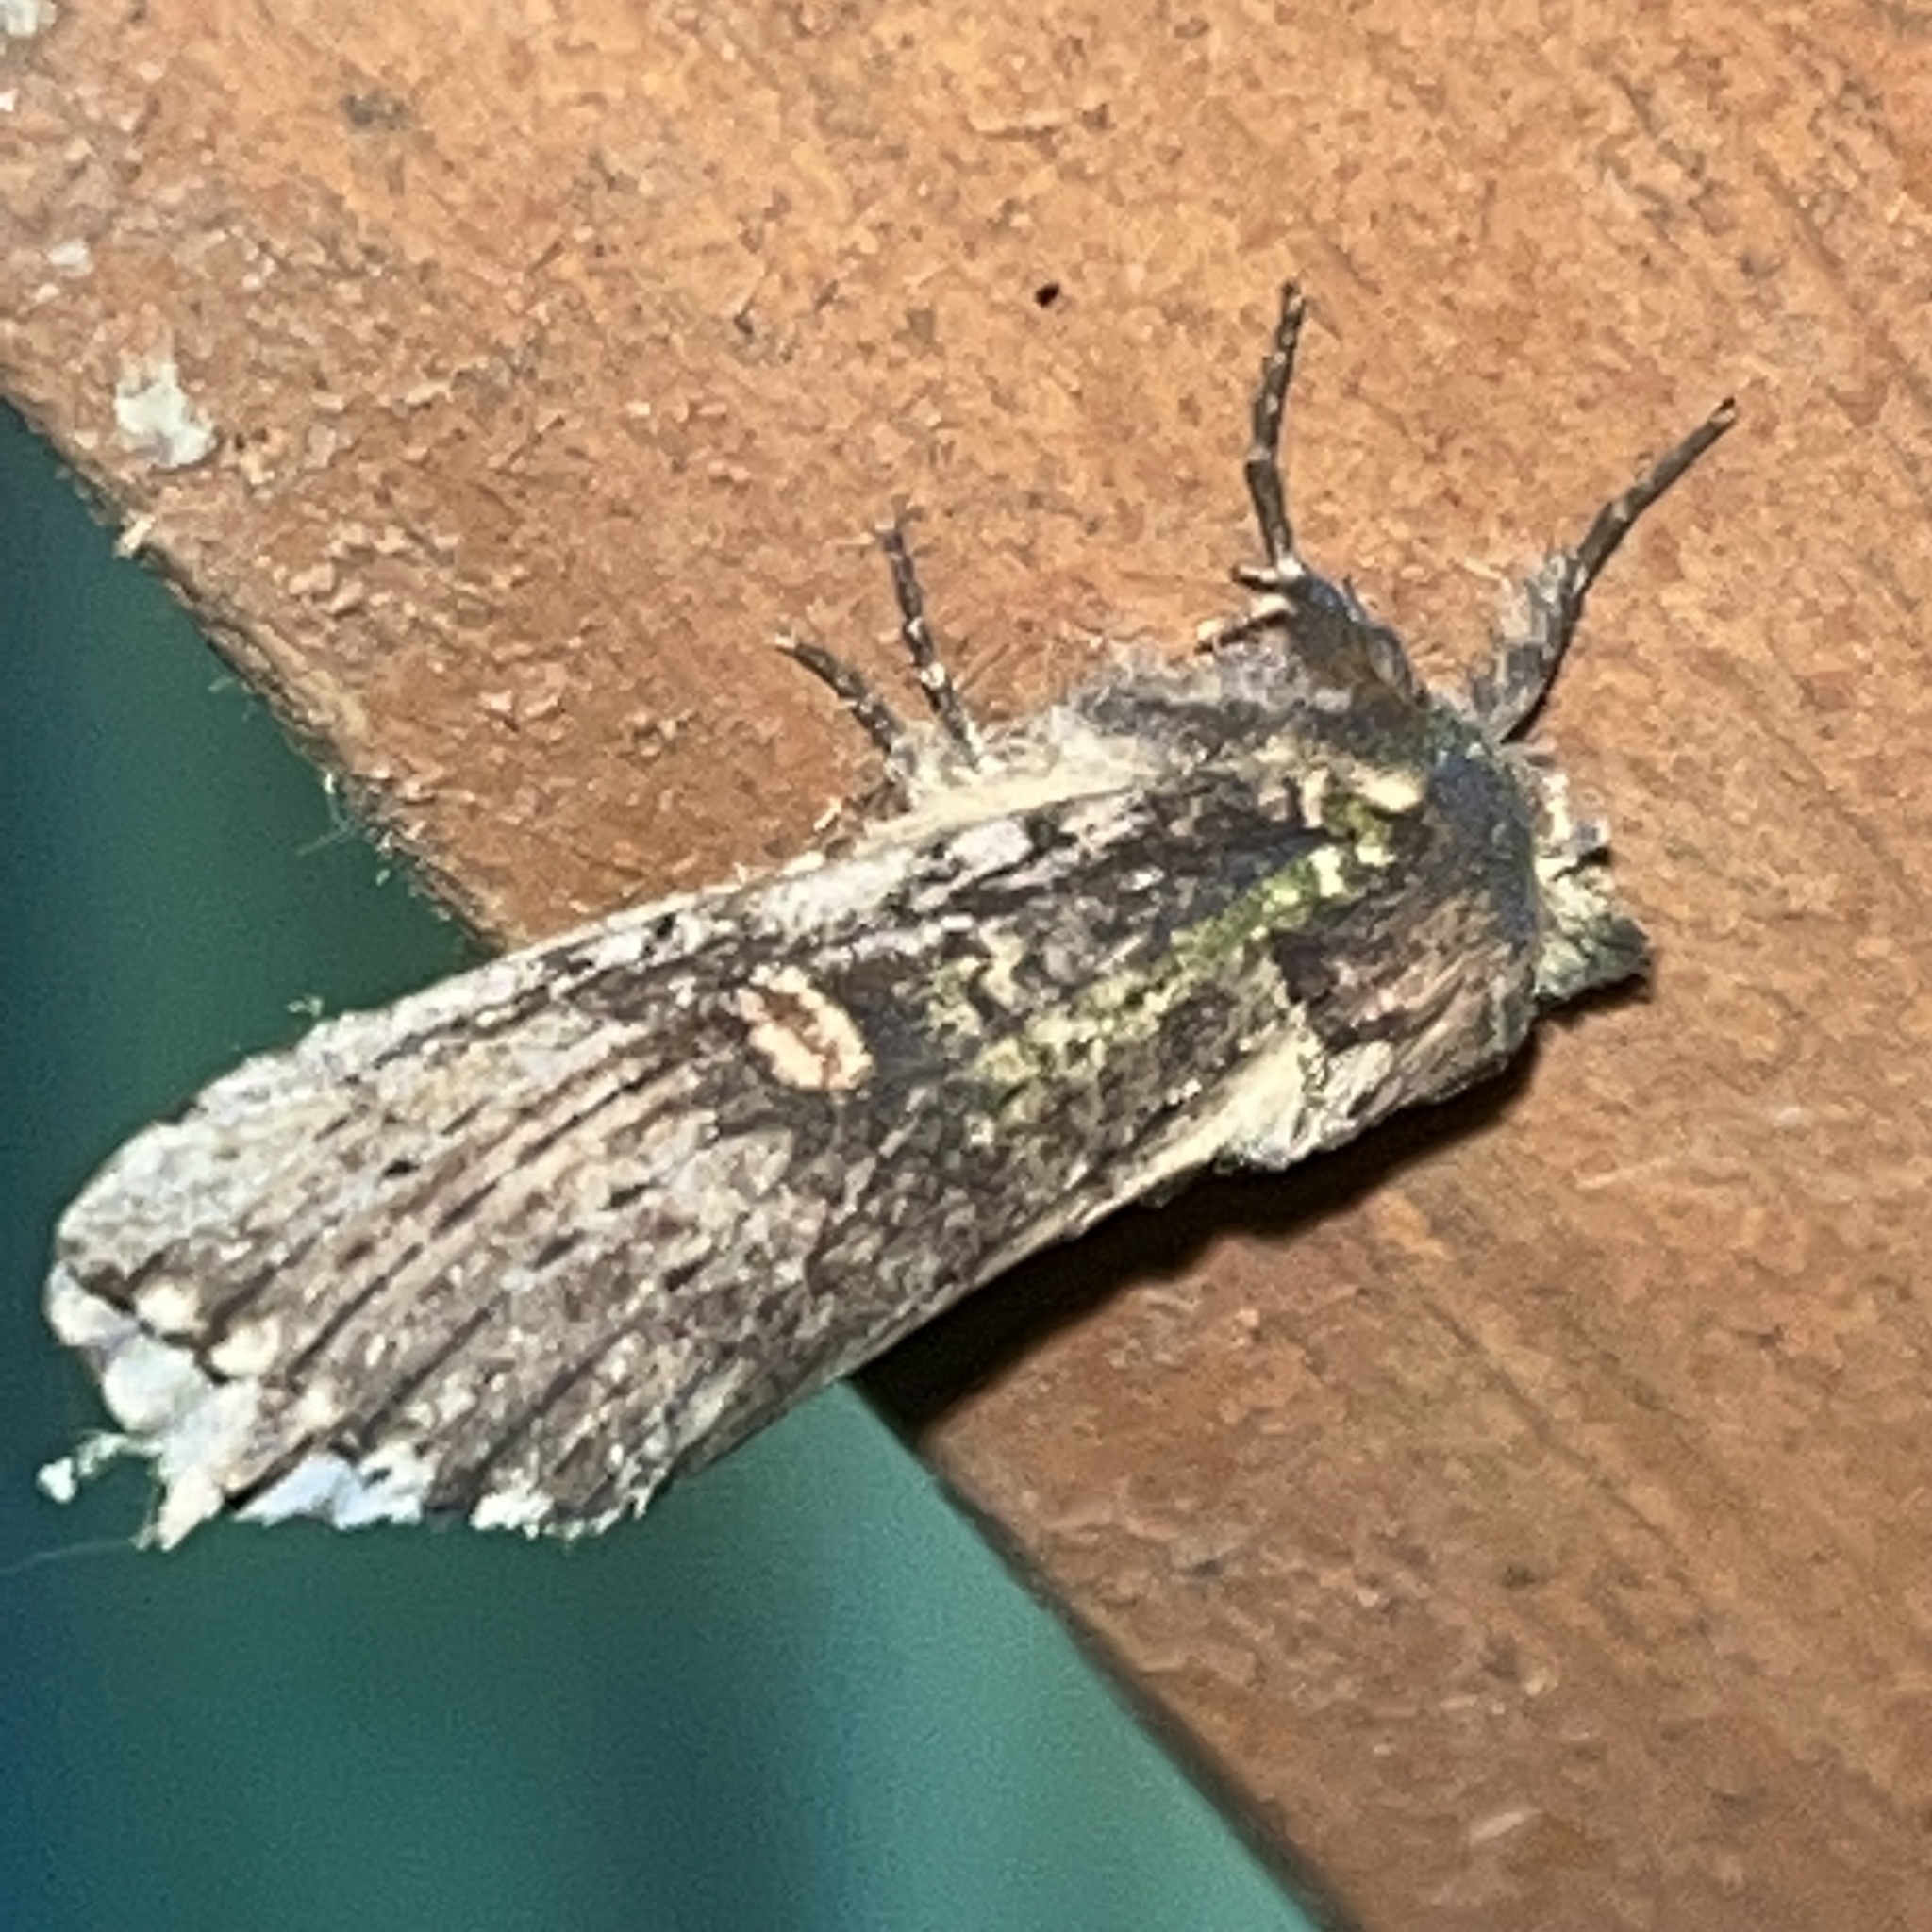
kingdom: Animalia
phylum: Arthropoda
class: Insecta
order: Lepidoptera
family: Notodontidae
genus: Schizura
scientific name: Schizura ipomaeae
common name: Morning-glory prominent
